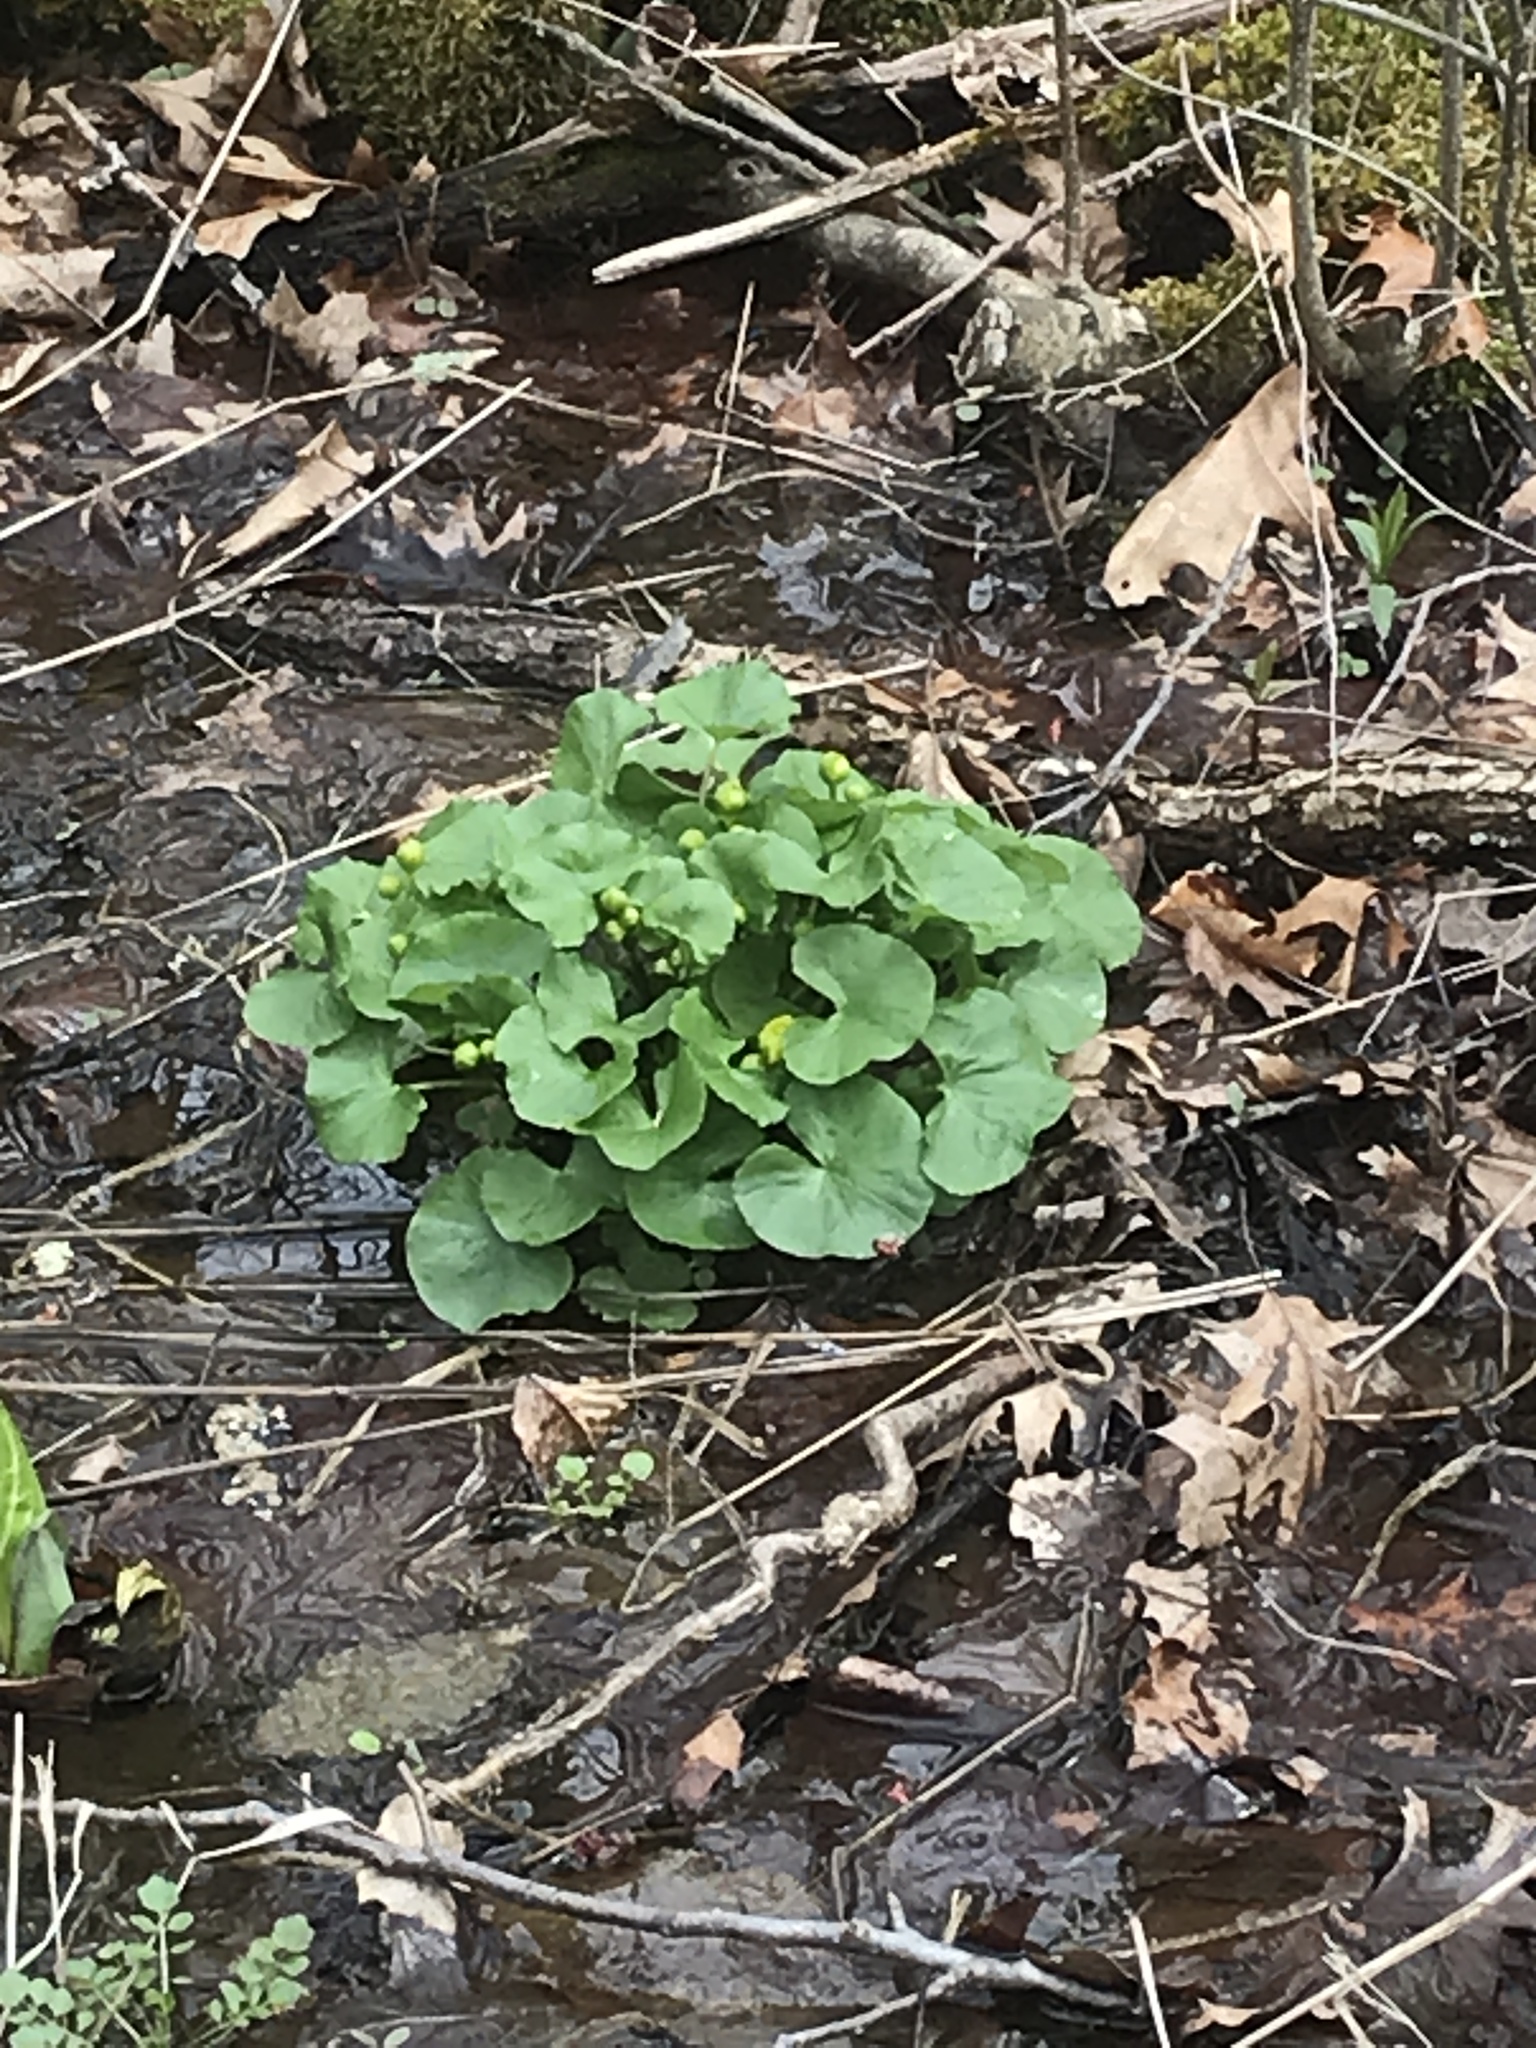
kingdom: Plantae
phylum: Tracheophyta
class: Magnoliopsida
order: Ranunculales
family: Ranunculaceae
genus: Caltha
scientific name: Caltha palustris
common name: Marsh marigold
